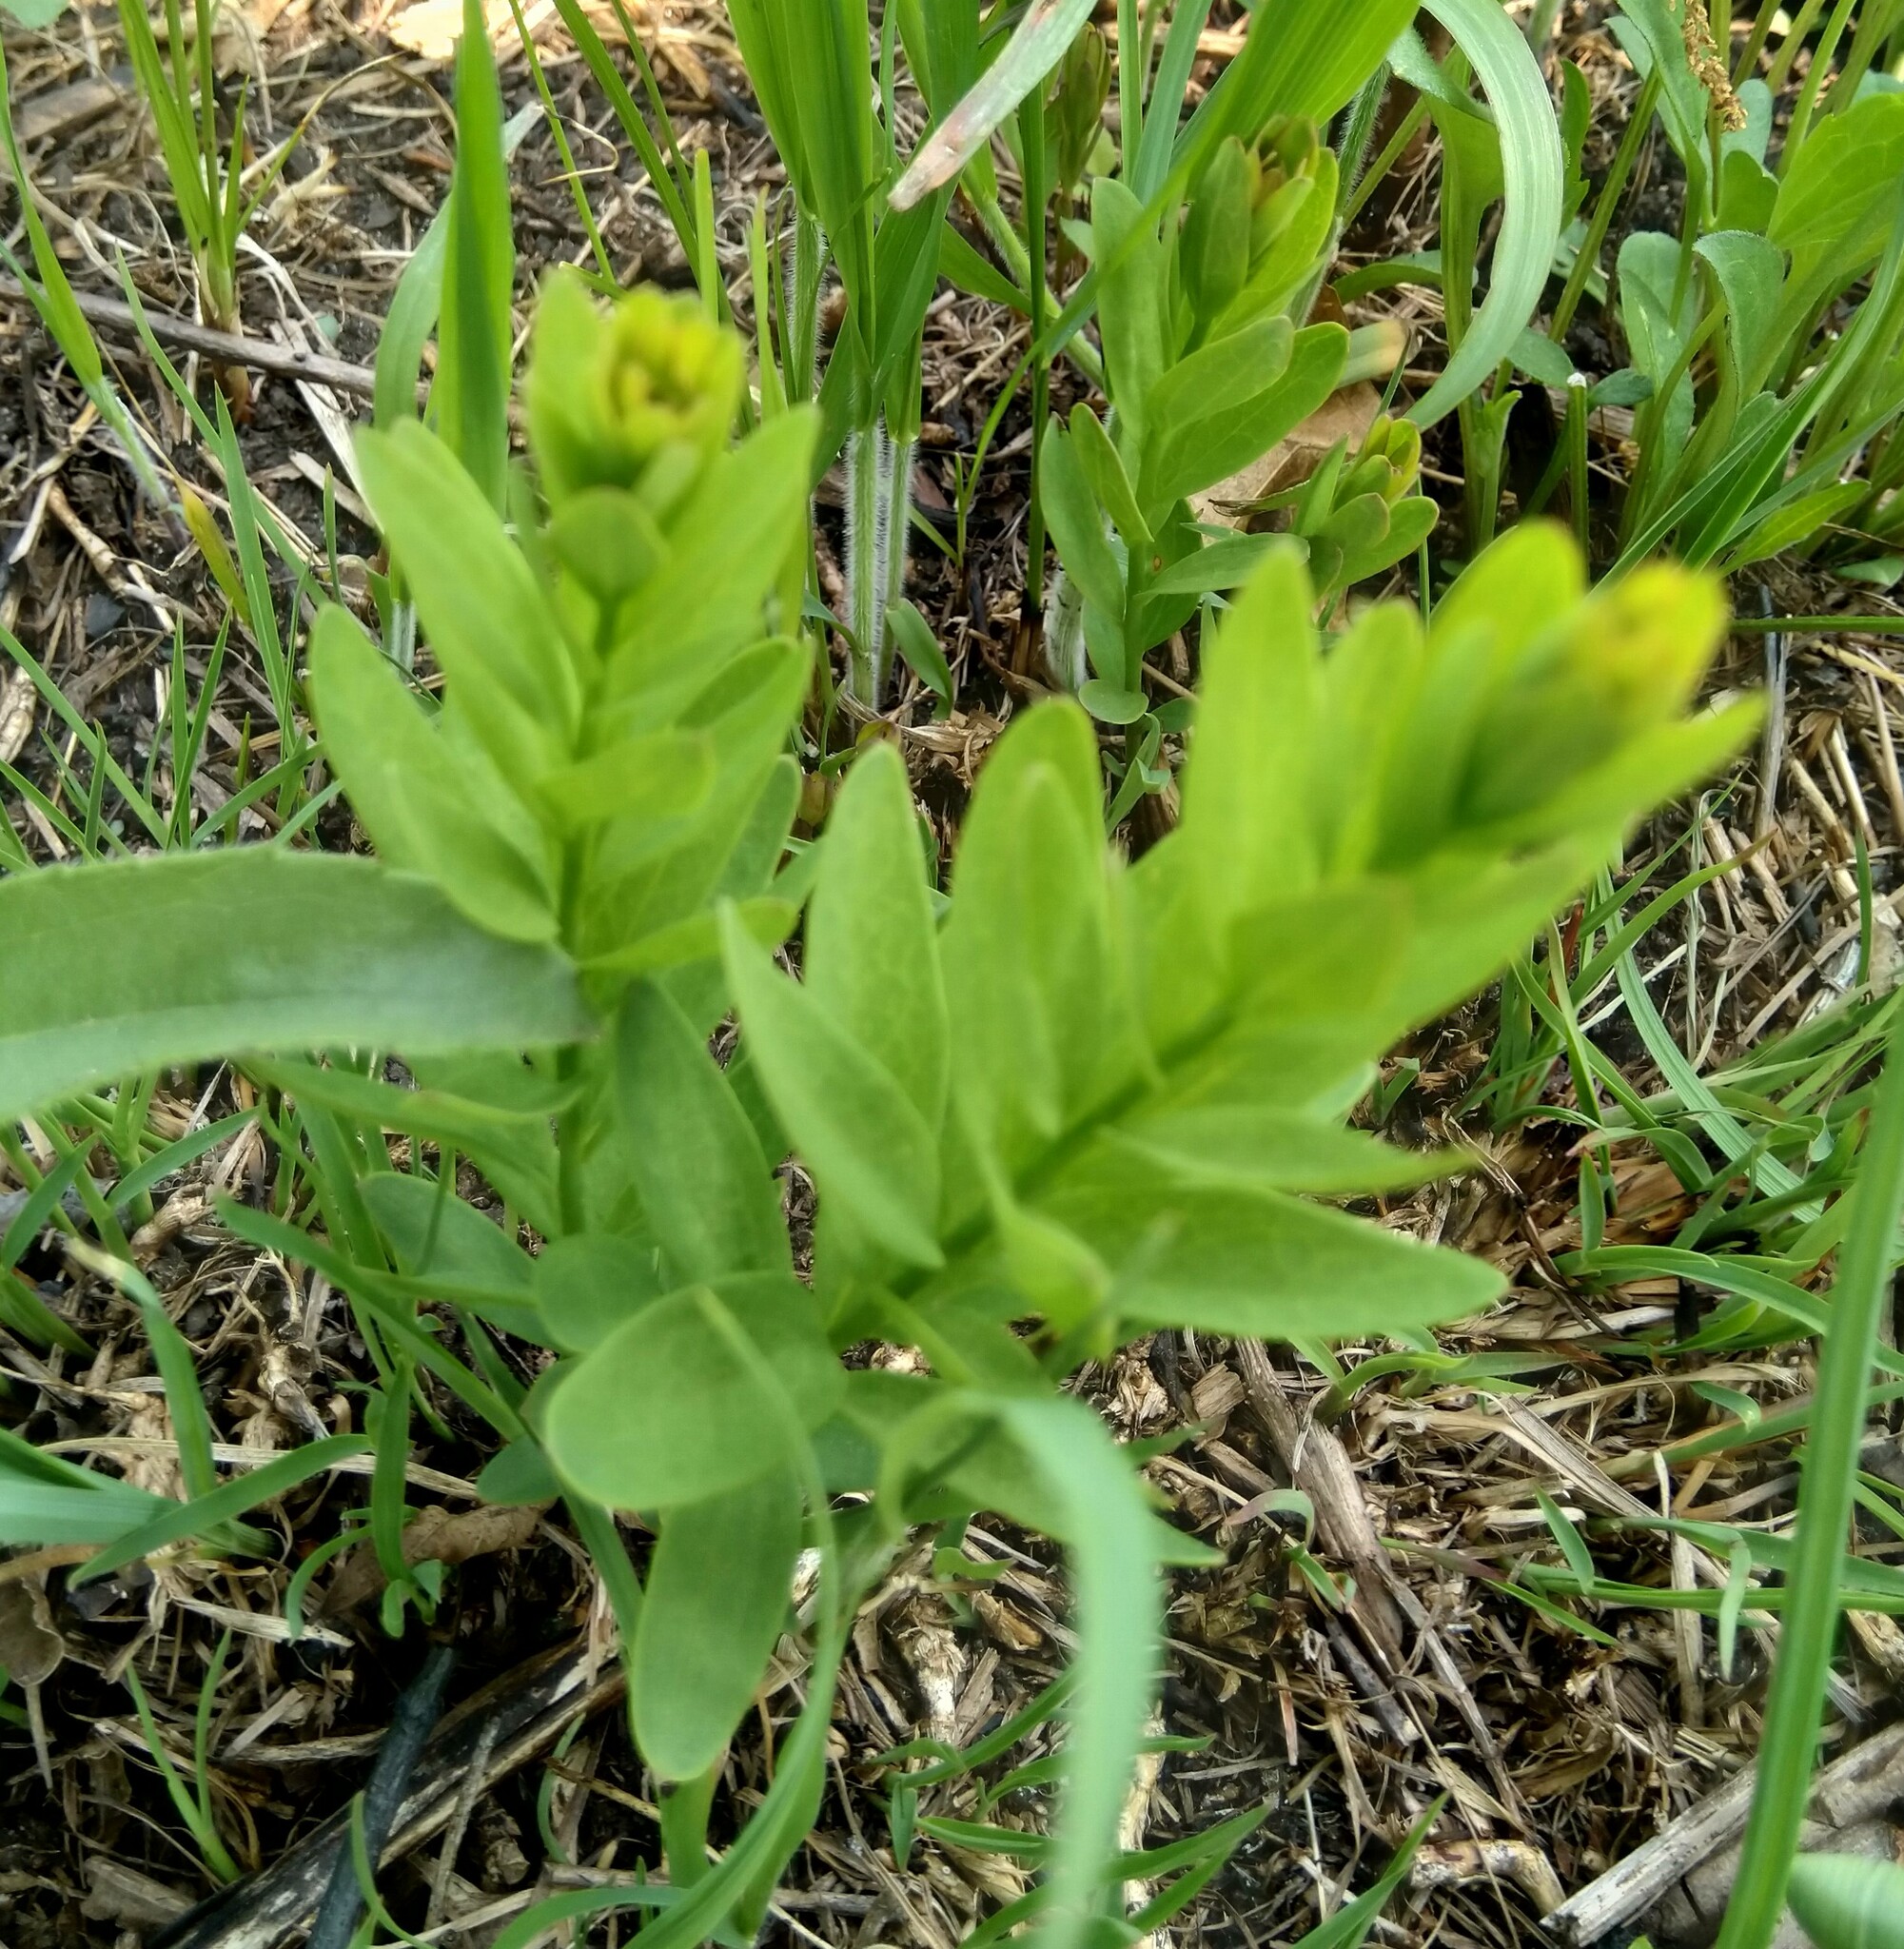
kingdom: Plantae
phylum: Tracheophyta
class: Magnoliopsida
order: Santalales
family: Comandraceae
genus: Comandra
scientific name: Comandra umbellata
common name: Bastard toadflax
